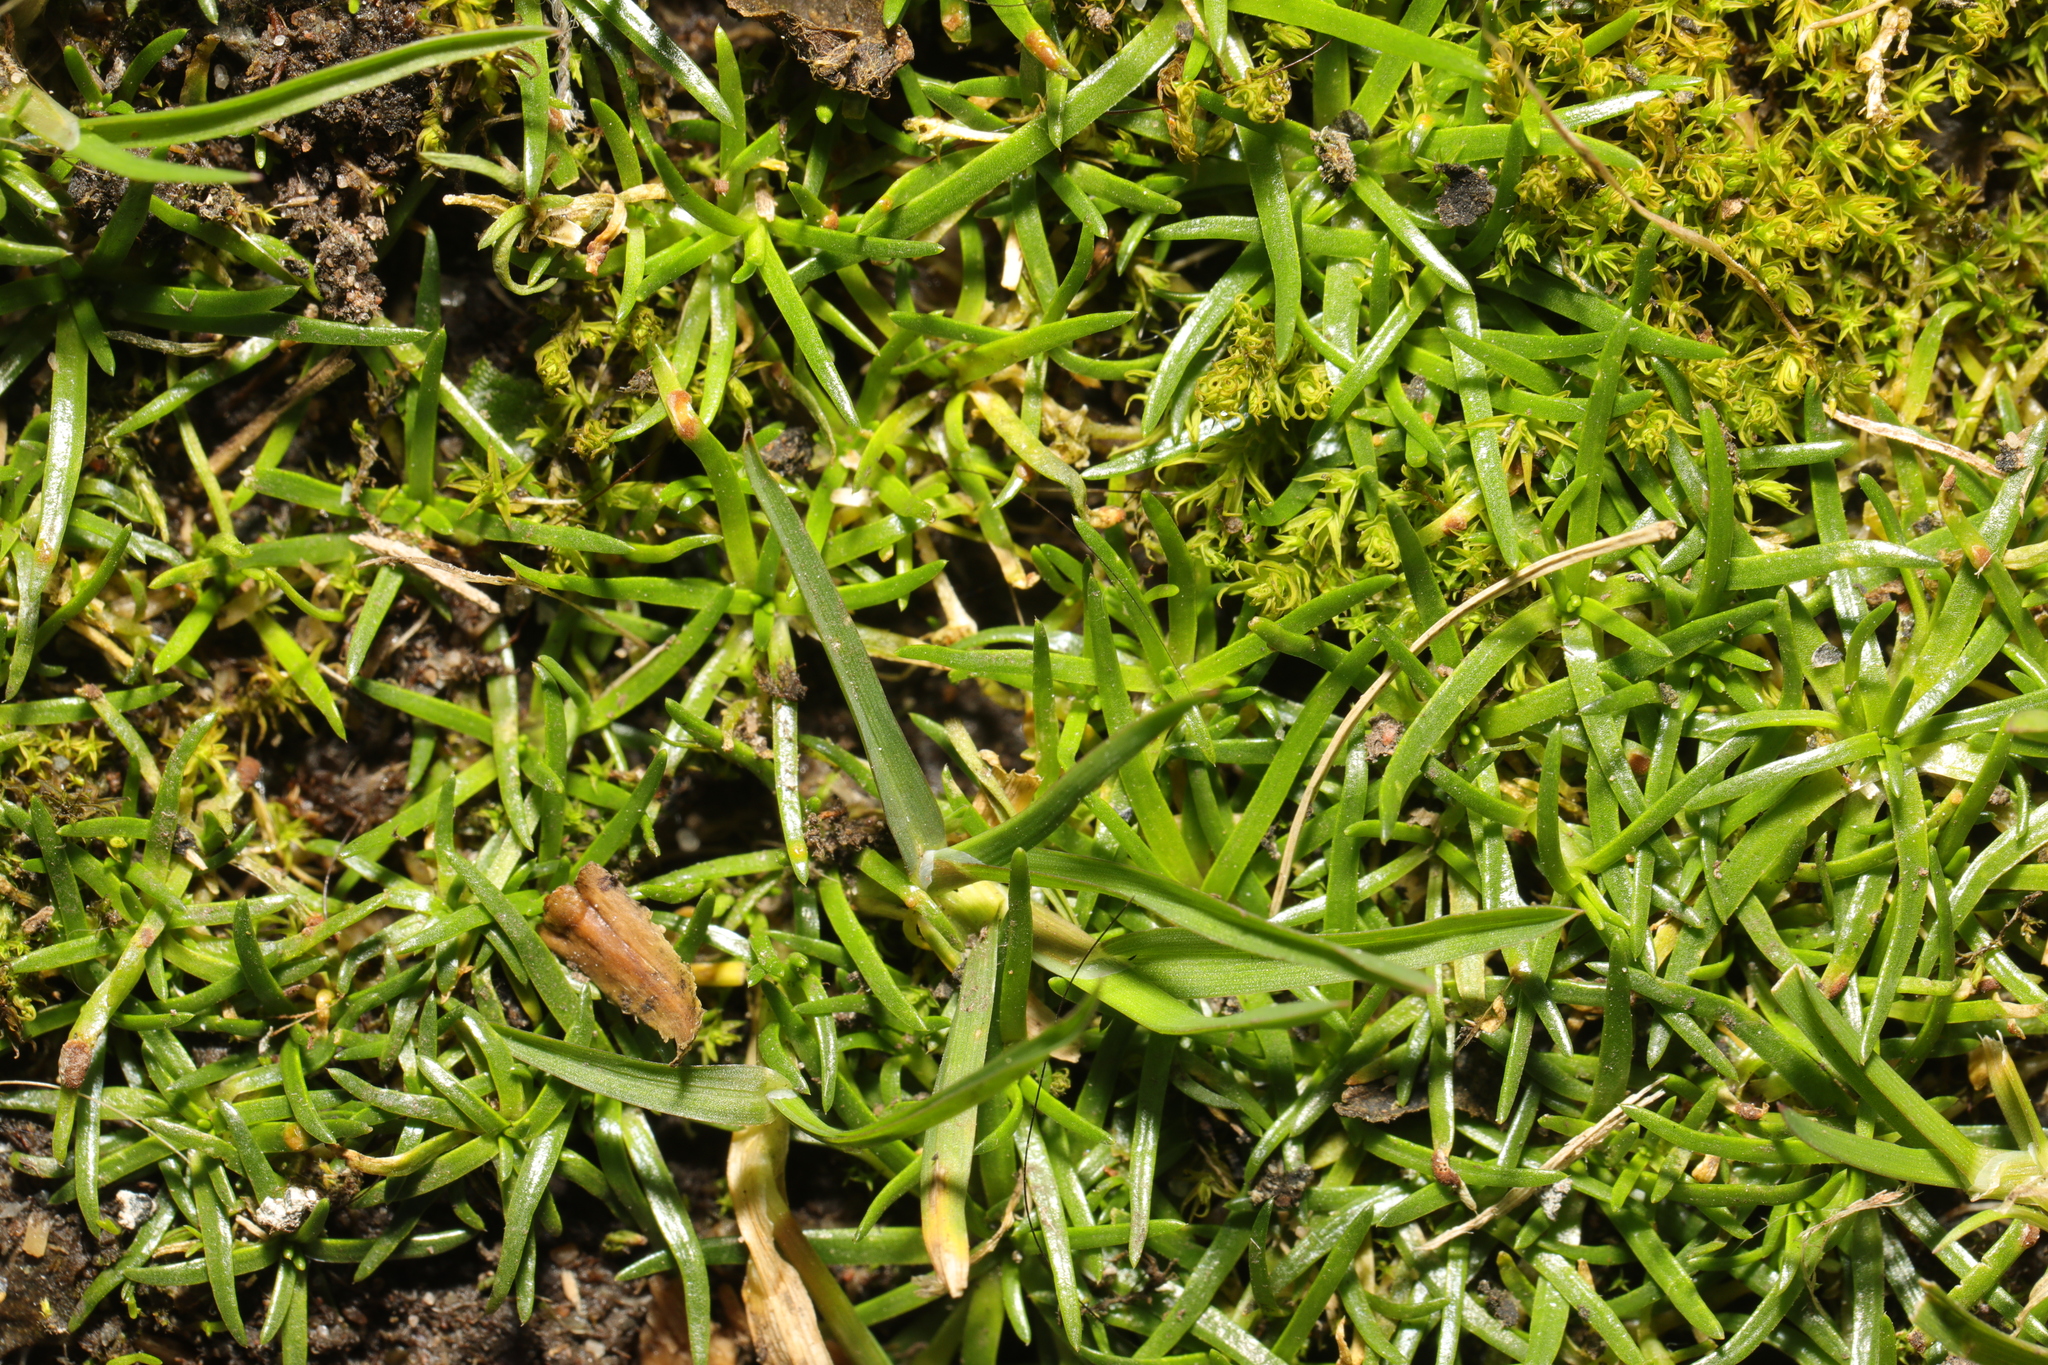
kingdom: Plantae
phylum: Tracheophyta
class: Magnoliopsida
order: Caryophyllales
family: Caryophyllaceae
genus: Sagina
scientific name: Sagina procumbens
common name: Procumbent pearlwort
